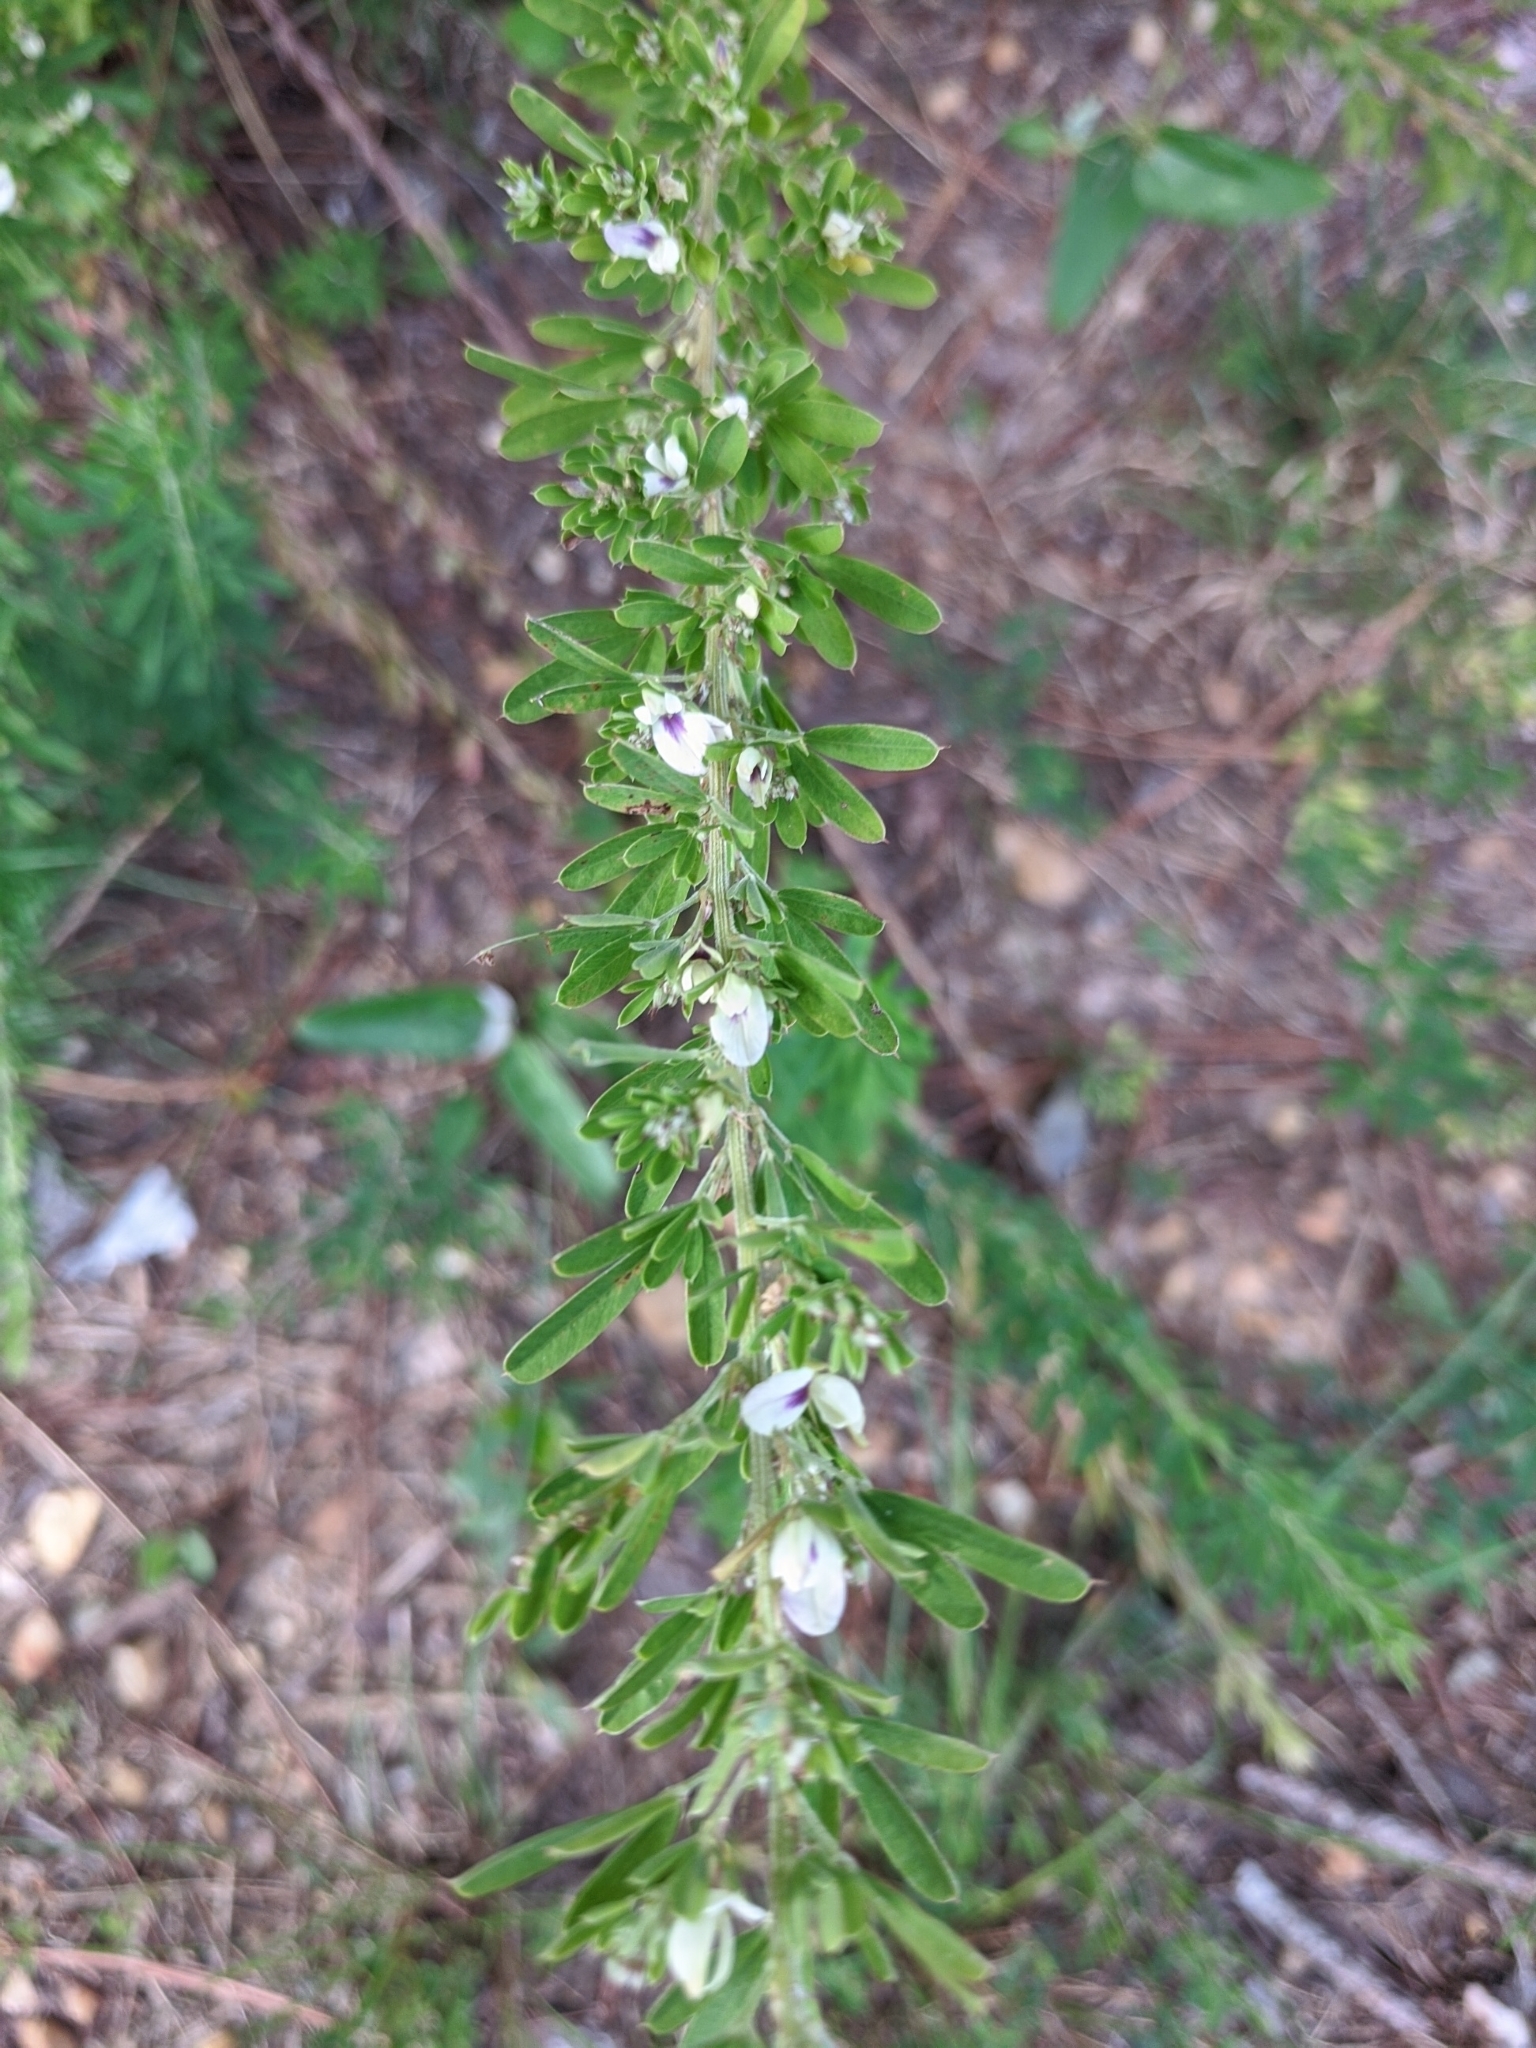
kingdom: Plantae
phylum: Tracheophyta
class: Magnoliopsida
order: Fabales
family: Fabaceae
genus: Lespedeza
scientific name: Lespedeza cuneata
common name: Chinese bush-clover
